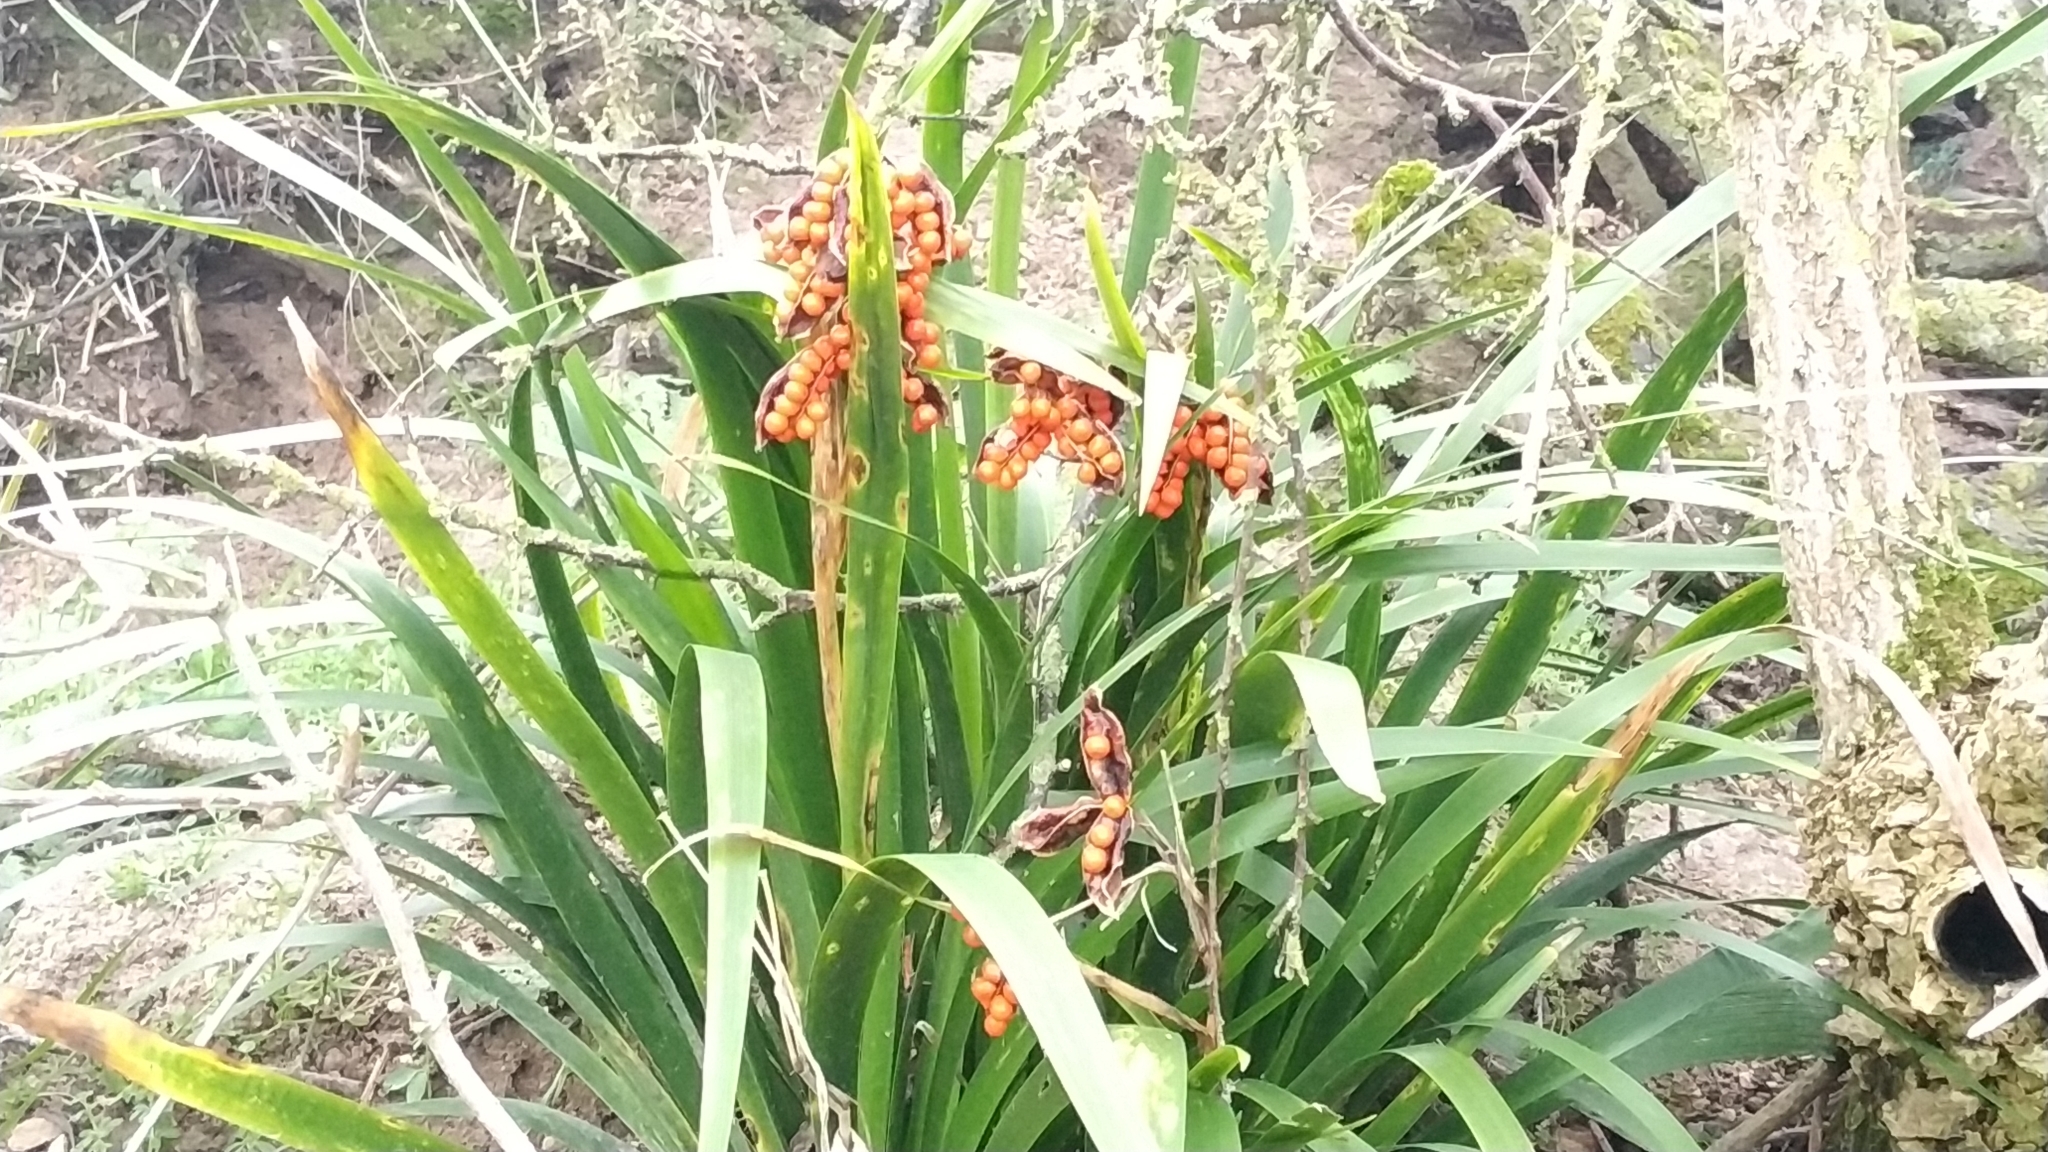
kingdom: Plantae
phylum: Tracheophyta
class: Liliopsida
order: Asparagales
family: Iridaceae
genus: Iris
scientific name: Iris foetidissima
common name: Stinking iris
